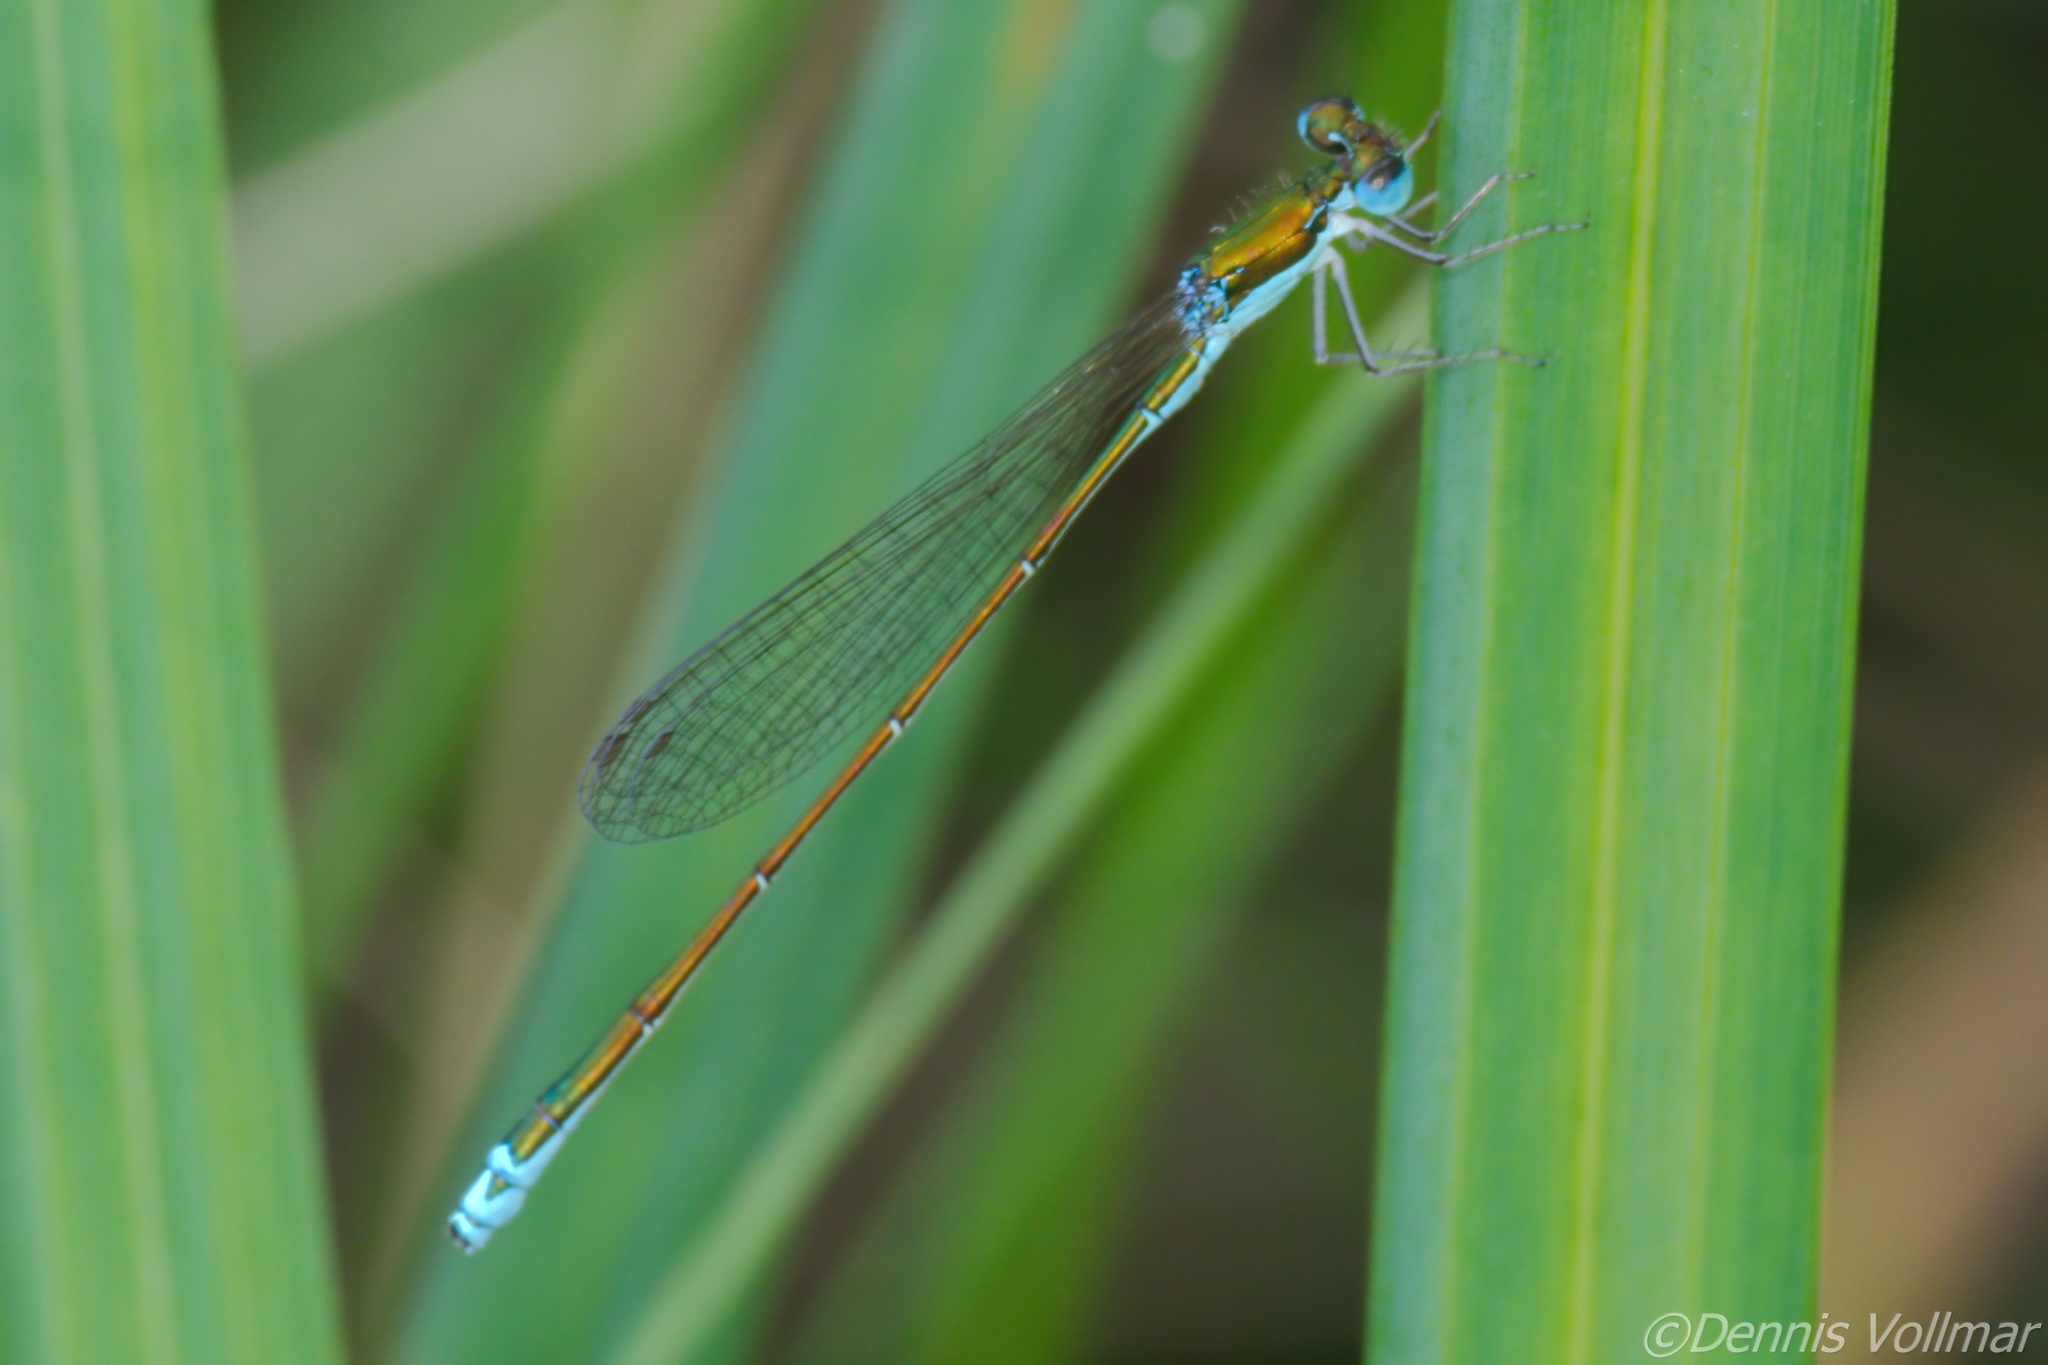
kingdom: Animalia
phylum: Arthropoda
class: Insecta
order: Odonata
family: Coenagrionidae
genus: Nehalennia
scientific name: Nehalennia irene
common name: Sedge sprite
